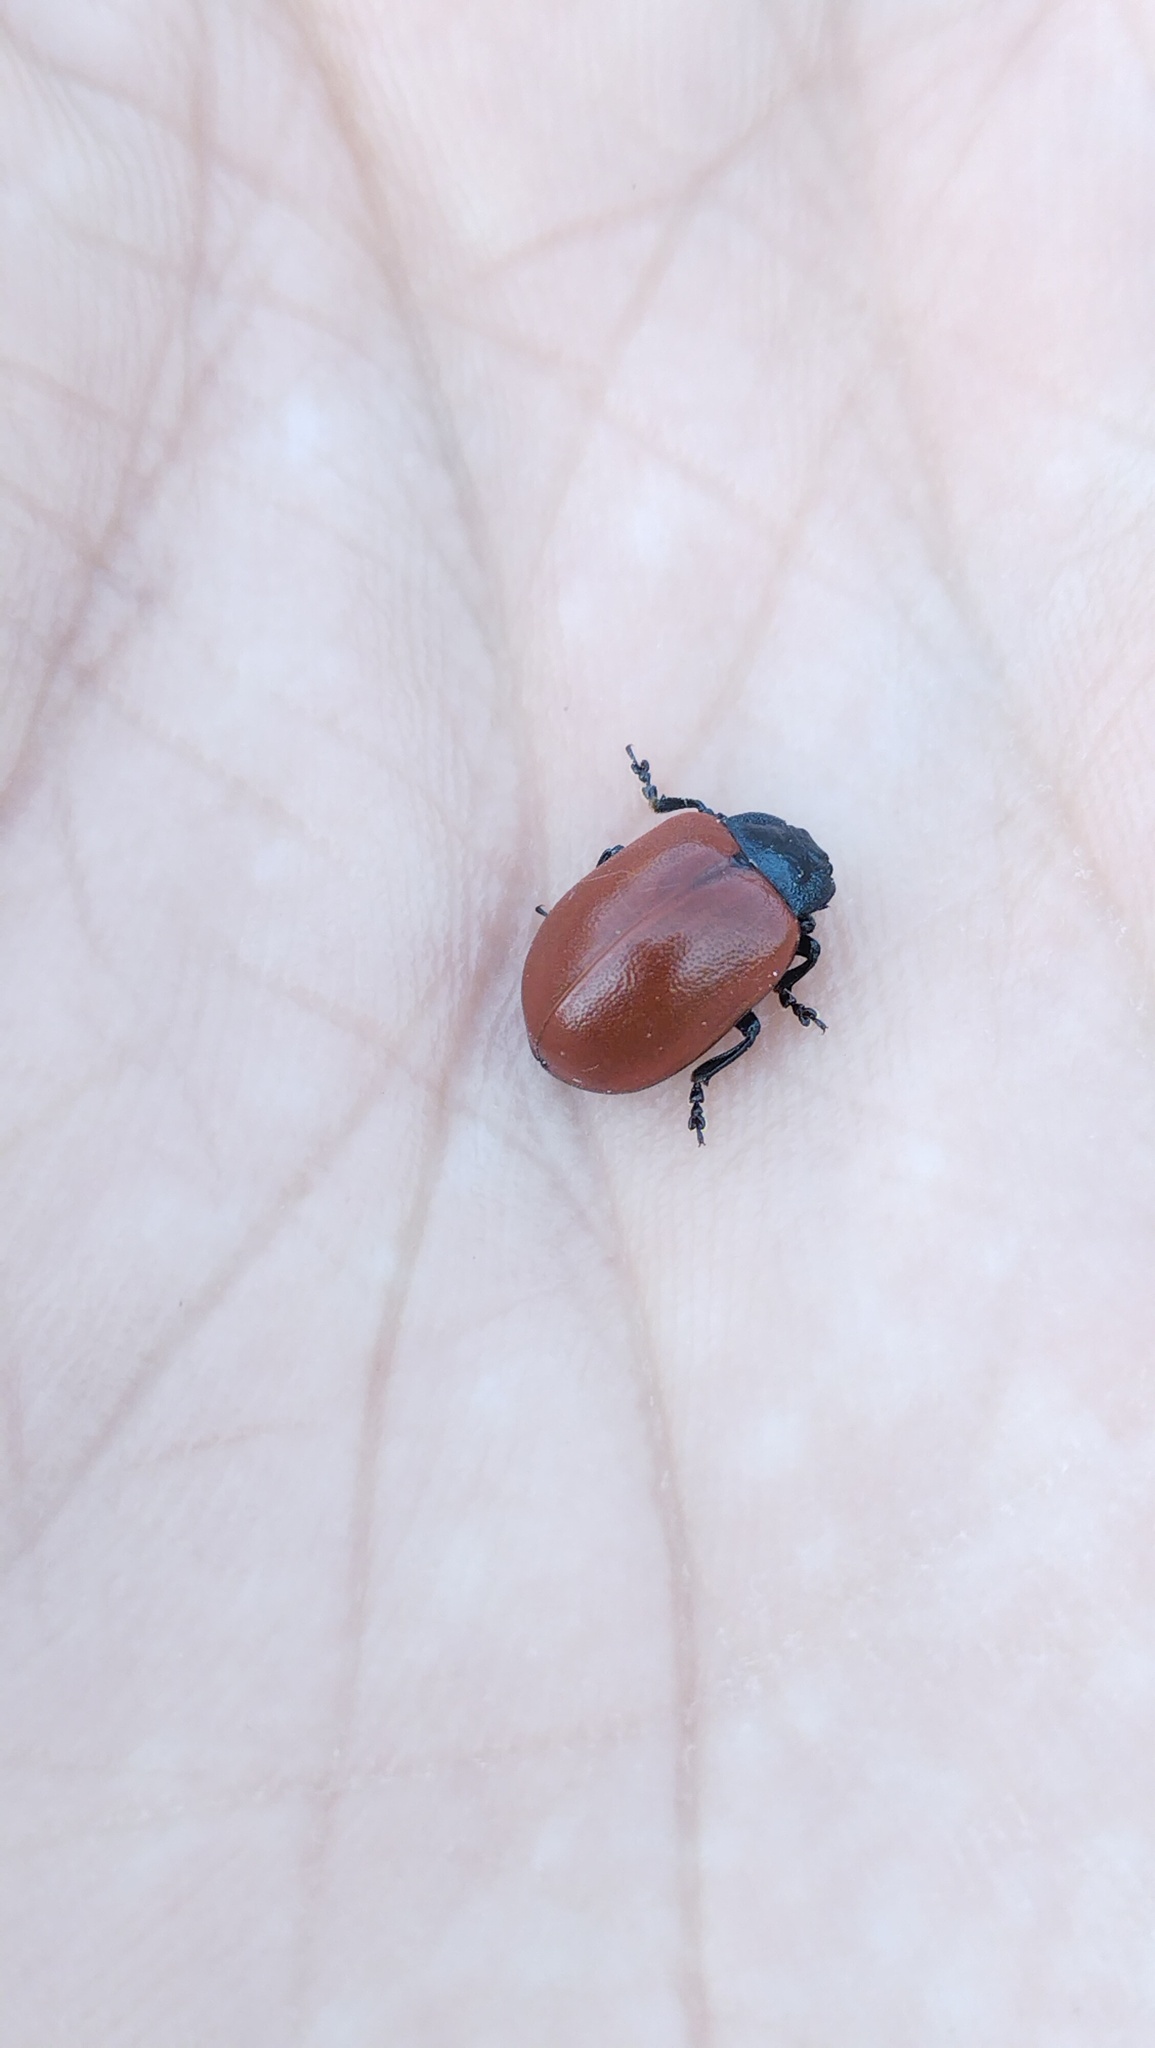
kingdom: Animalia
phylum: Arthropoda
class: Insecta
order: Coleoptera
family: Chrysomelidae
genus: Chrysomela
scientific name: Chrysomela populi
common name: Red poplar leaf beetle
